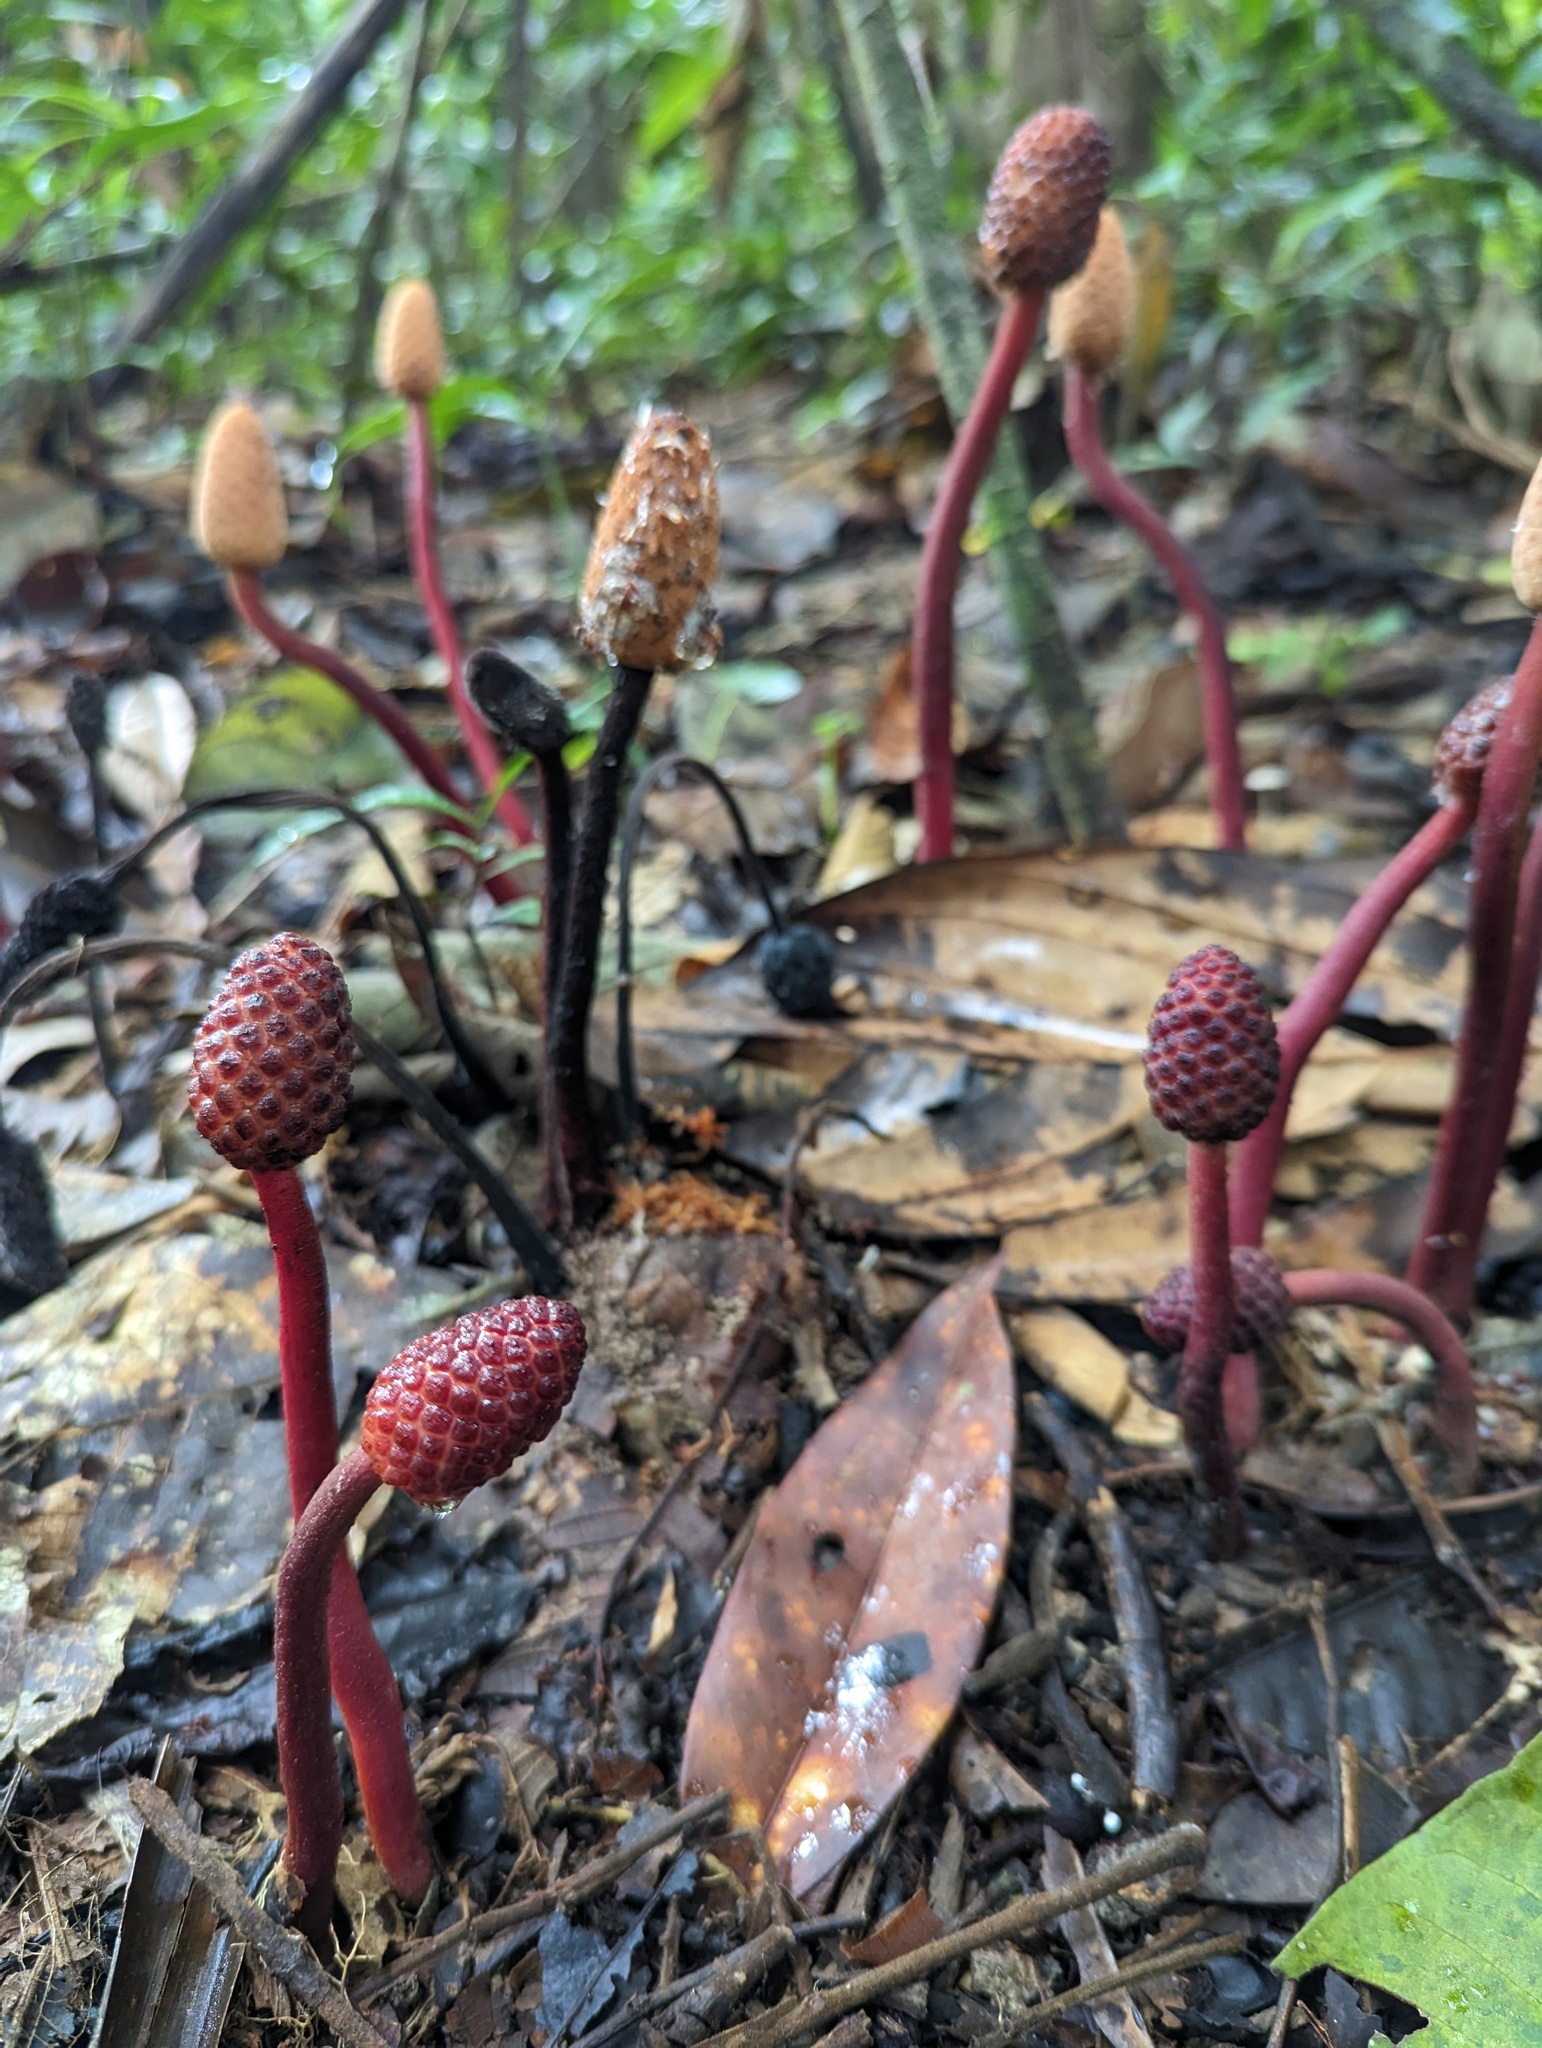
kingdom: Plantae
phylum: Tracheophyta
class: Magnoliopsida
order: Santalales
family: Balanophoraceae
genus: Helosis
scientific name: Helosis cayennensis
